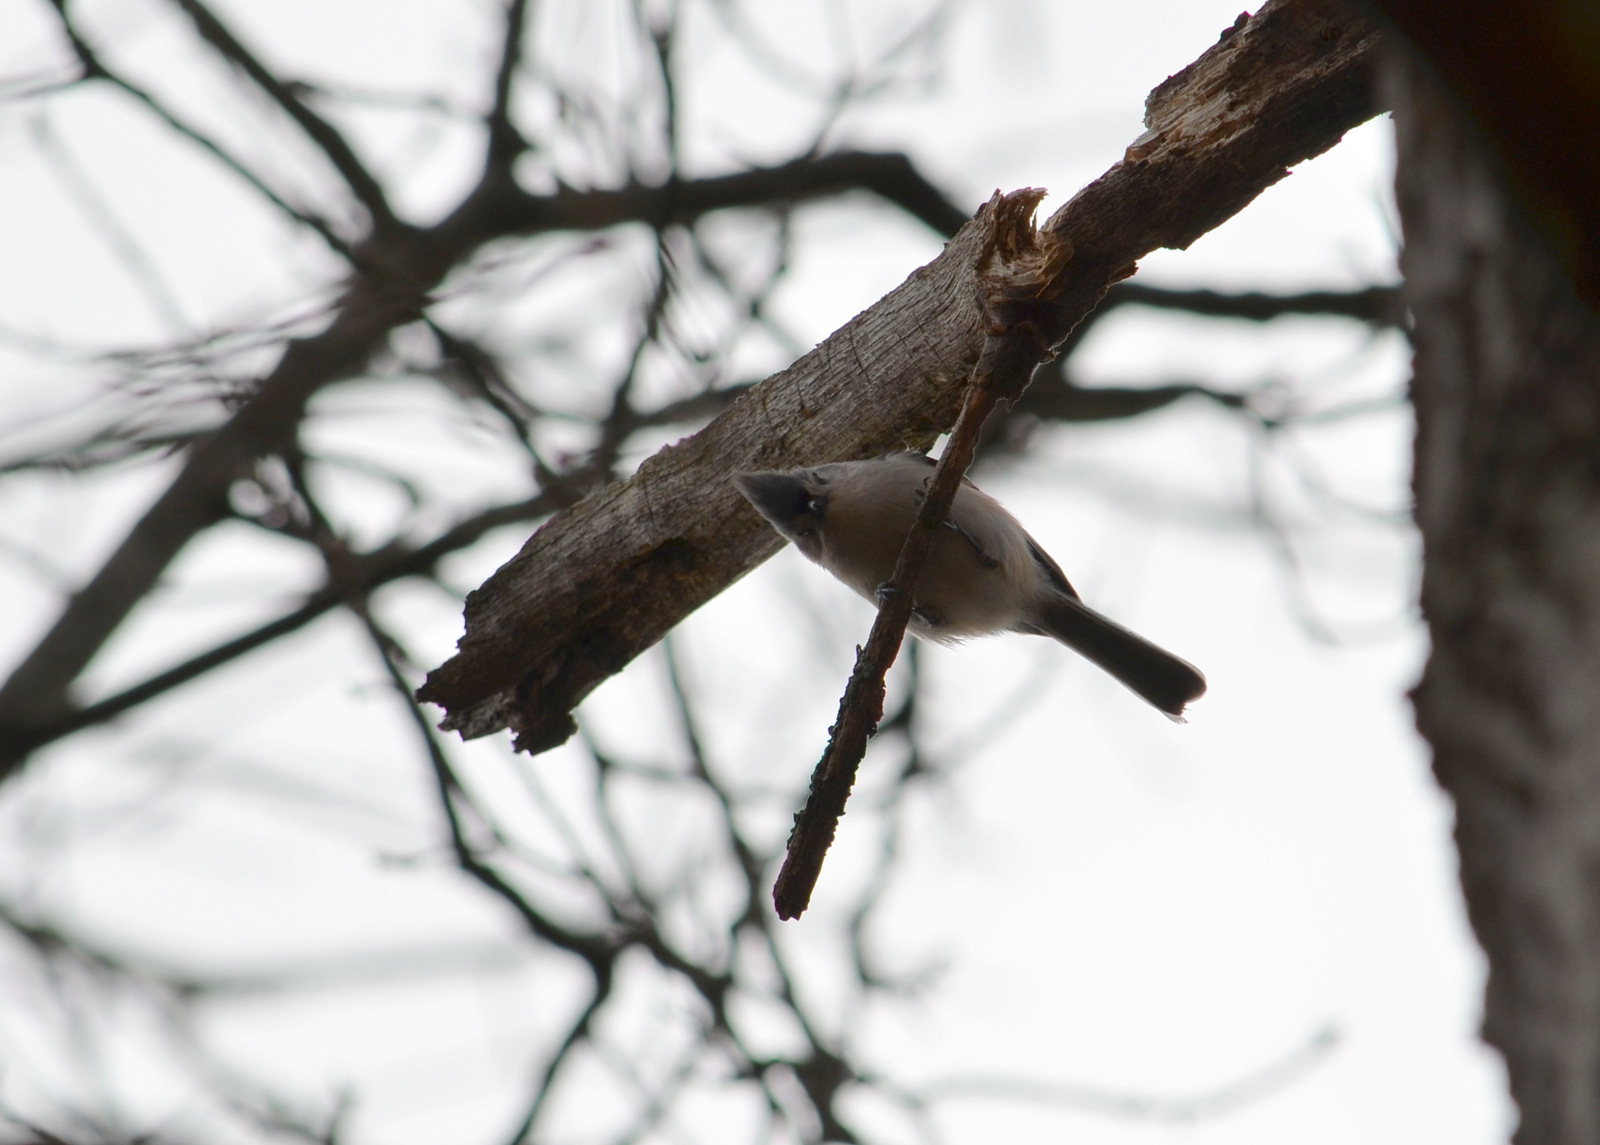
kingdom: Animalia
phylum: Chordata
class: Aves
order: Passeriformes
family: Paridae
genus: Baeolophus
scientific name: Baeolophus bicolor
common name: Tufted titmouse
